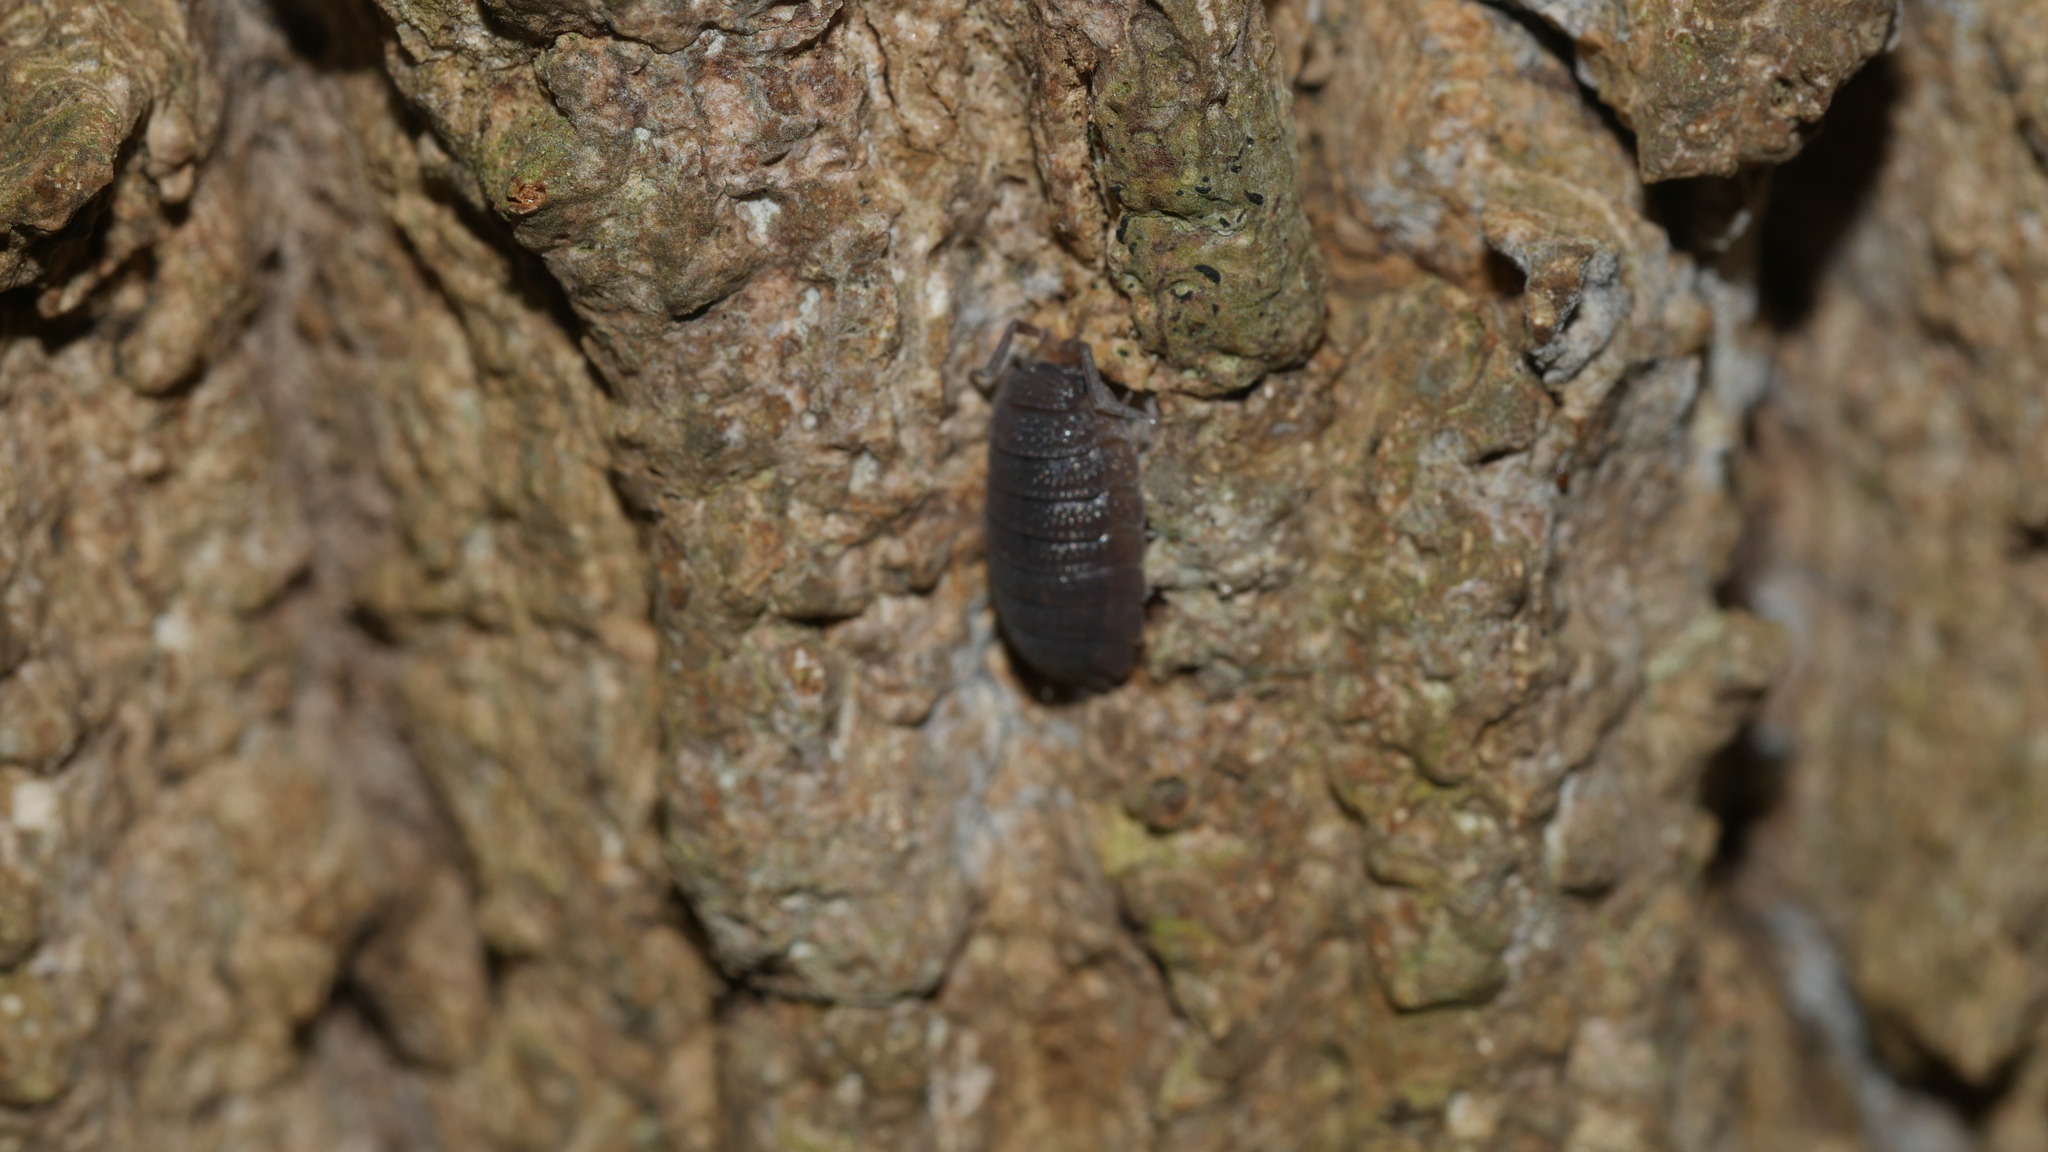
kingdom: Animalia
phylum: Arthropoda
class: Malacostraca
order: Isopoda
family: Porcellionidae
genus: Porcellio
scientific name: Porcellio scaber
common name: Common rough woodlouse
